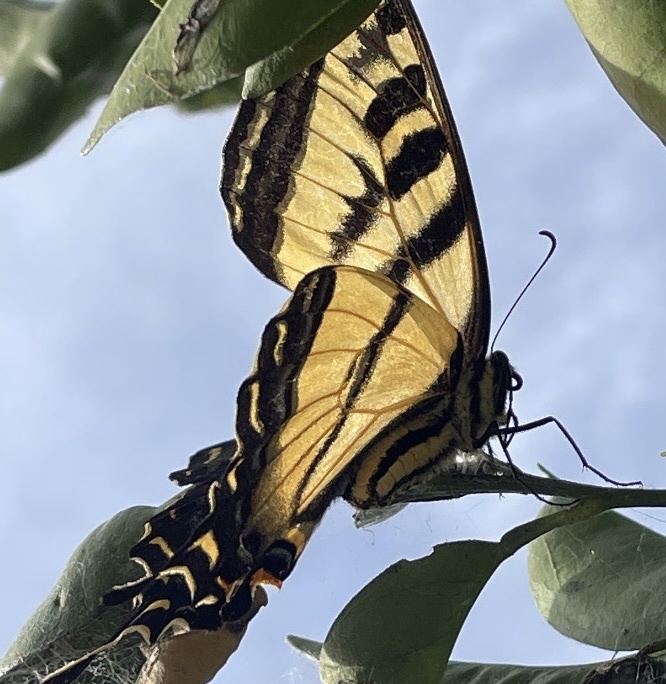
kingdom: Animalia
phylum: Arthropoda
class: Insecta
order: Lepidoptera
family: Papilionidae
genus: Papilio
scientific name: Papilio rutulus
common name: Western tiger swallowtail
